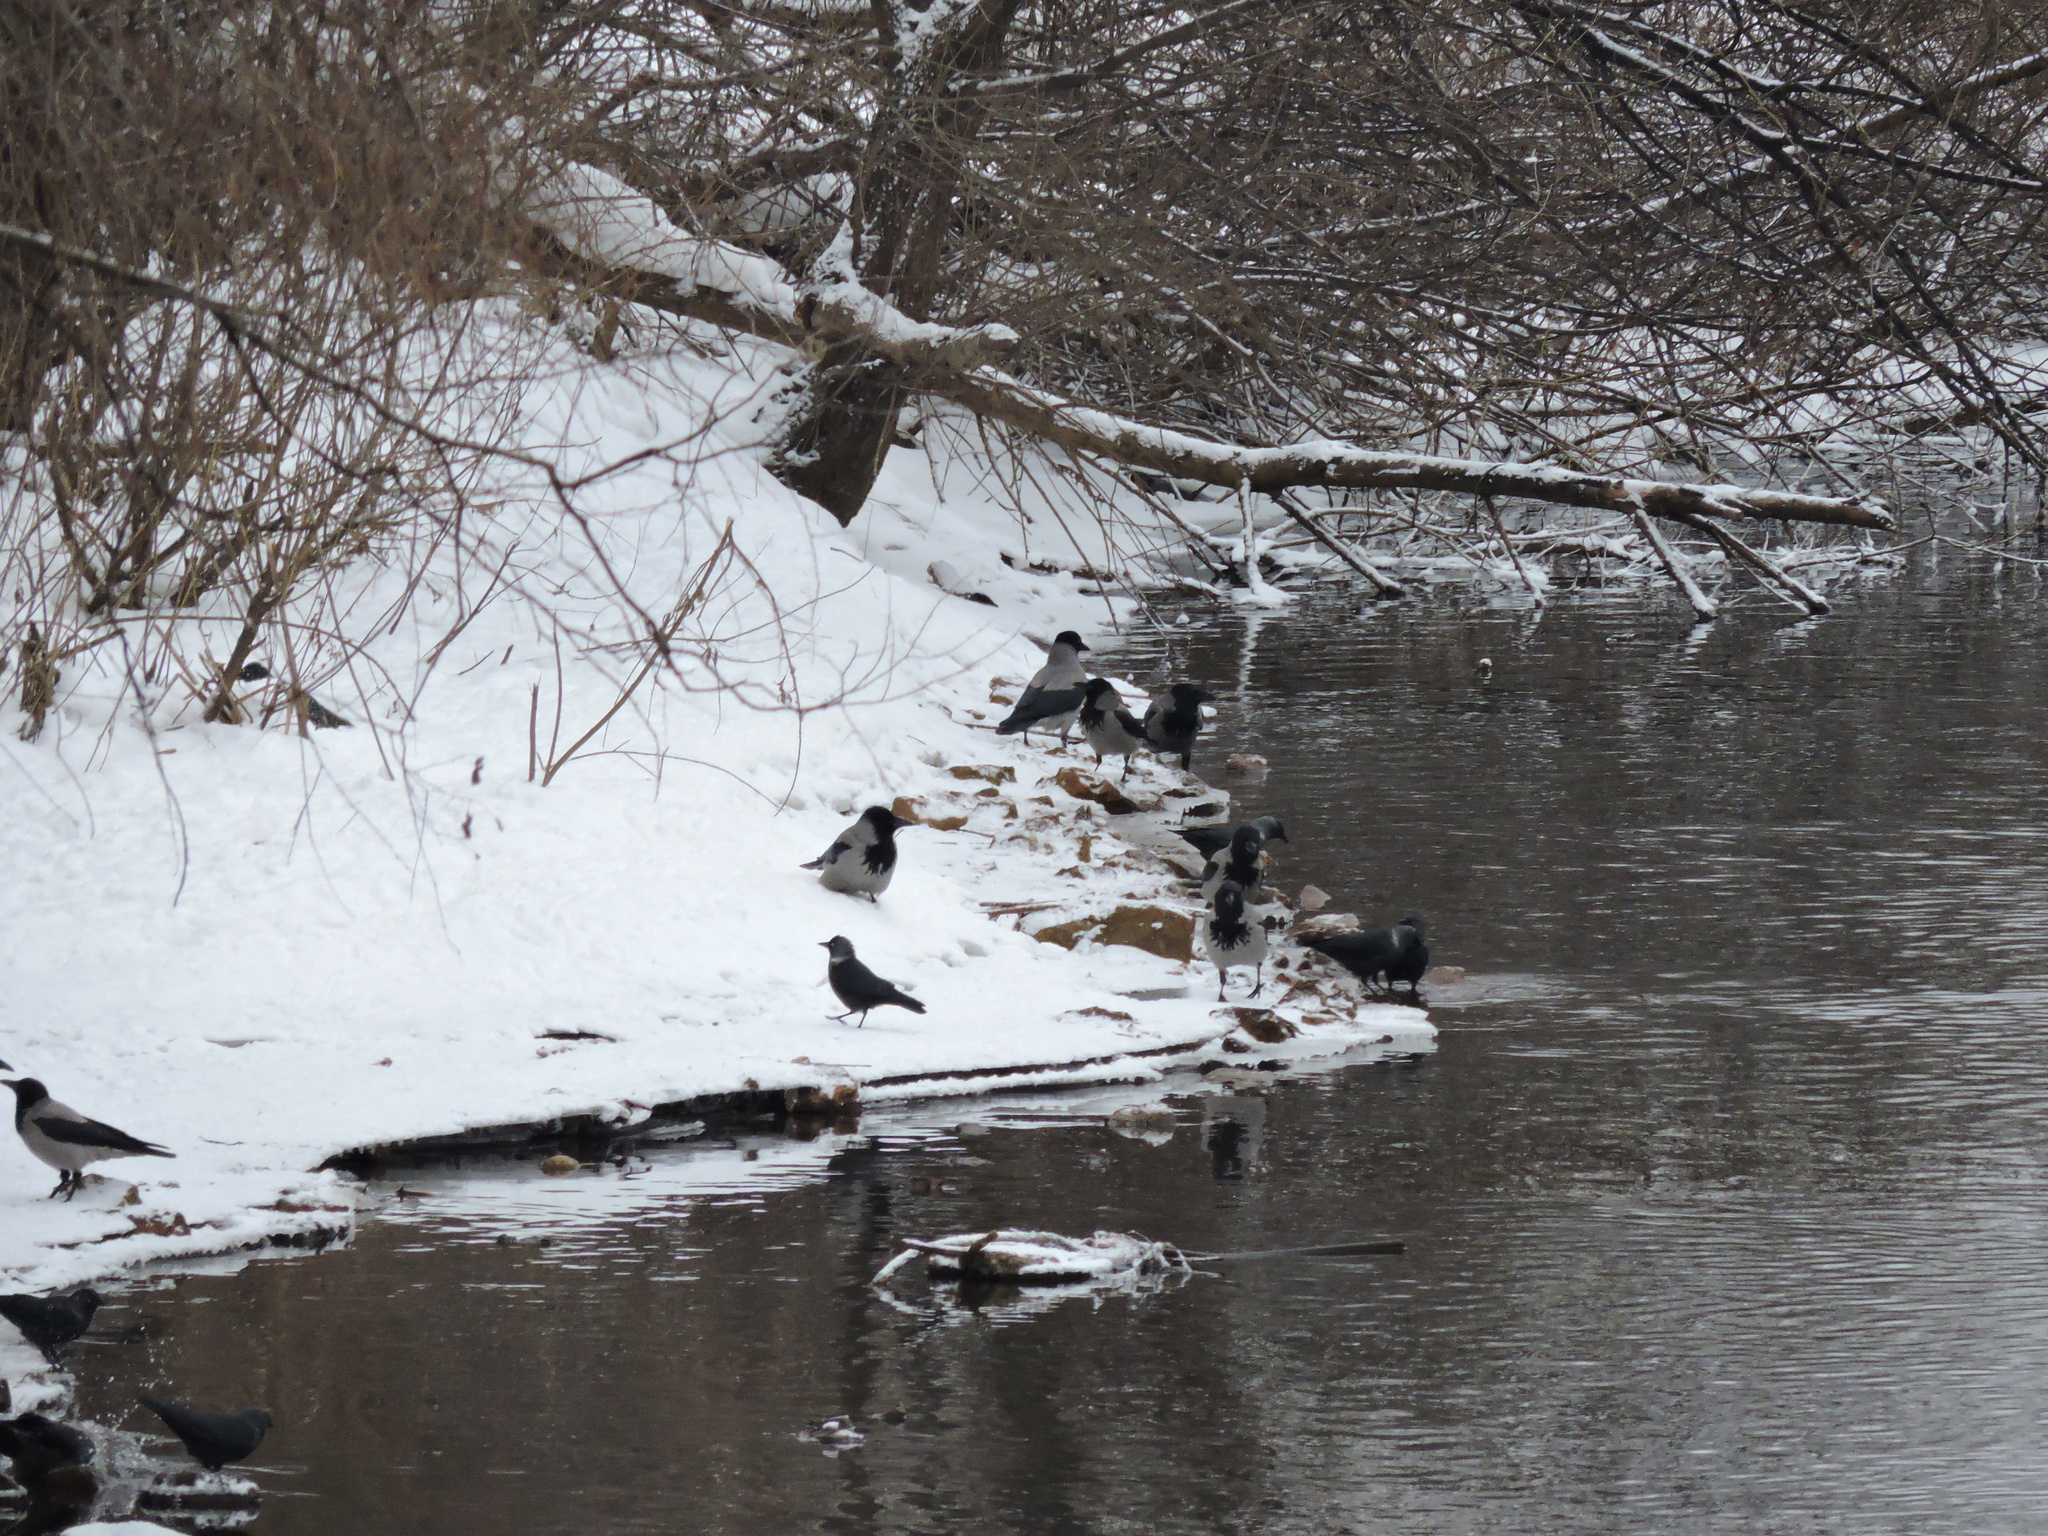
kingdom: Animalia
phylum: Chordata
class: Aves
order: Passeriformes
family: Corvidae
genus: Coloeus
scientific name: Coloeus monedula
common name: Western jackdaw
